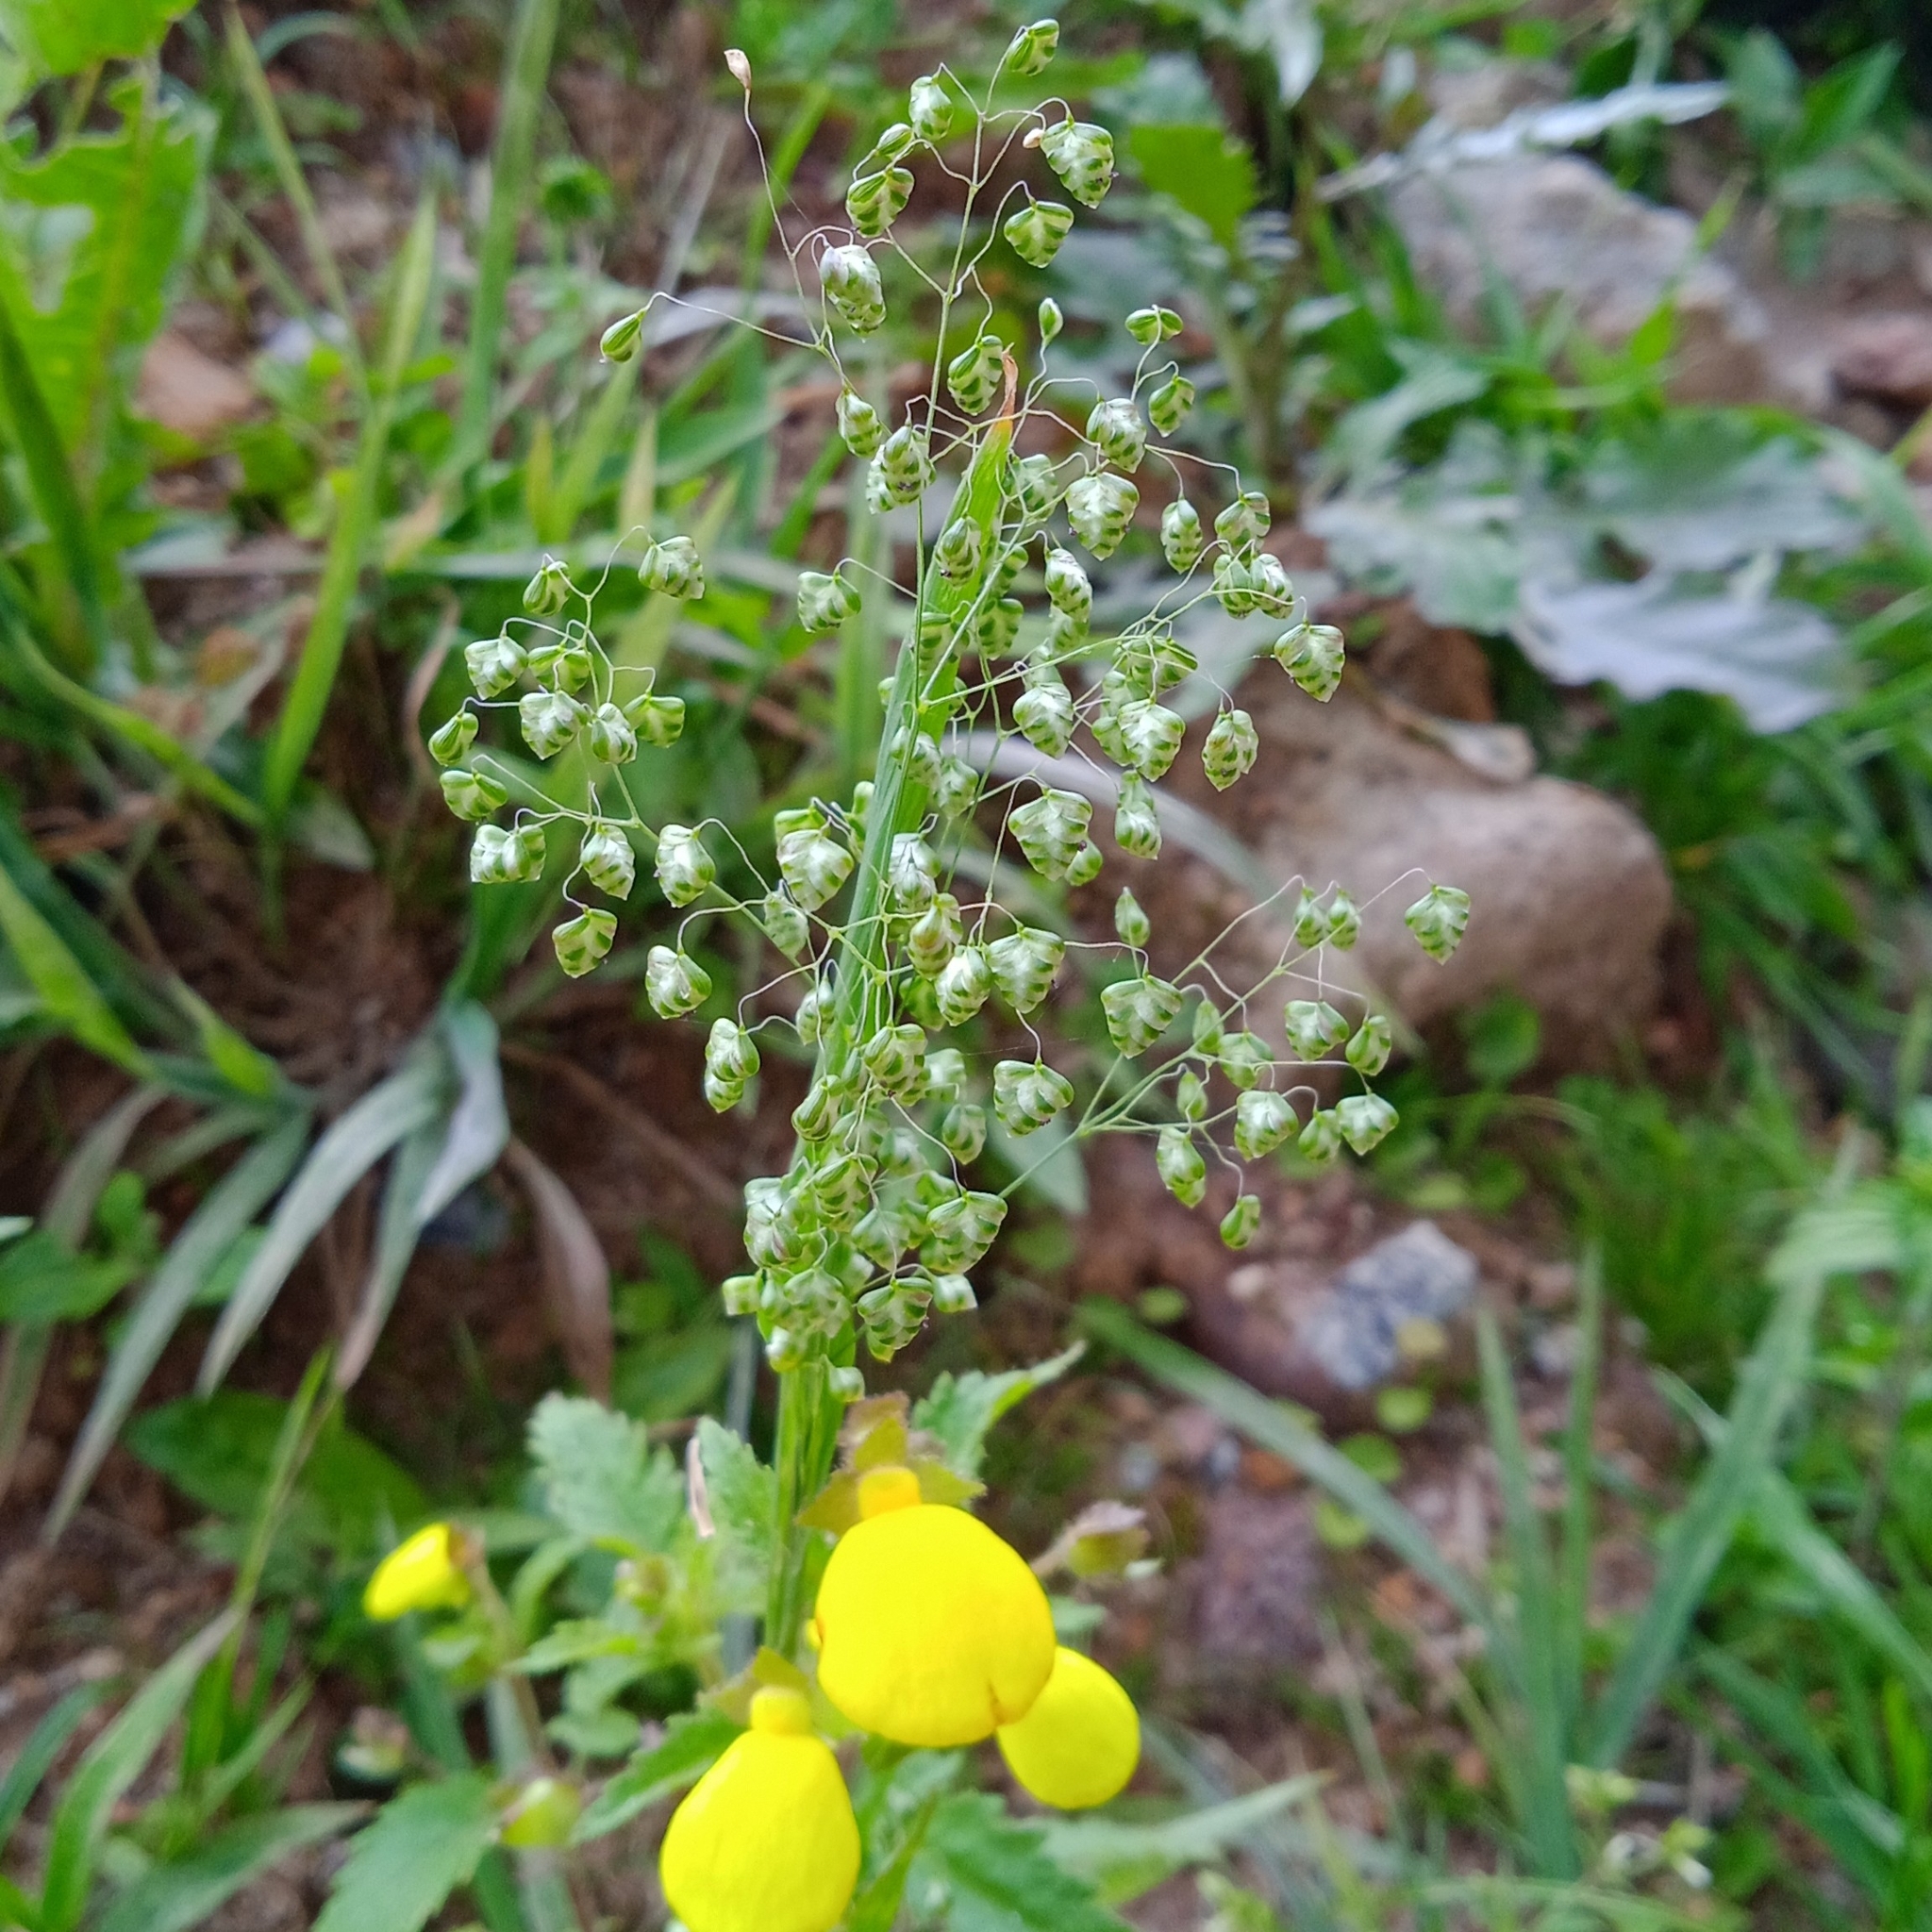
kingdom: Plantae
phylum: Tracheophyta
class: Magnoliopsida
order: Lamiales
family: Calceolariaceae
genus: Calceolaria
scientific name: Calceolaria tripartita
